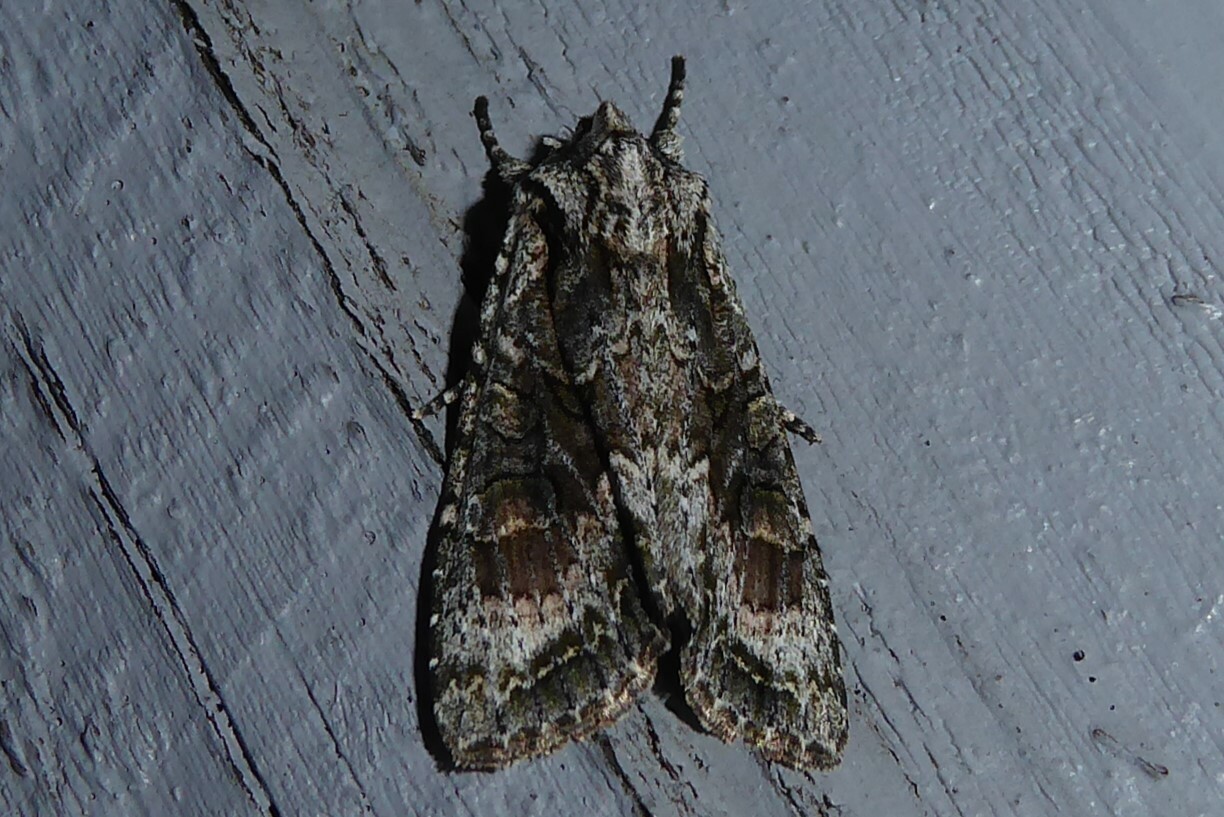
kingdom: Animalia
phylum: Arthropoda
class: Insecta
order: Lepidoptera
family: Noctuidae
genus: Ichneutica
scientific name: Ichneutica mutans
